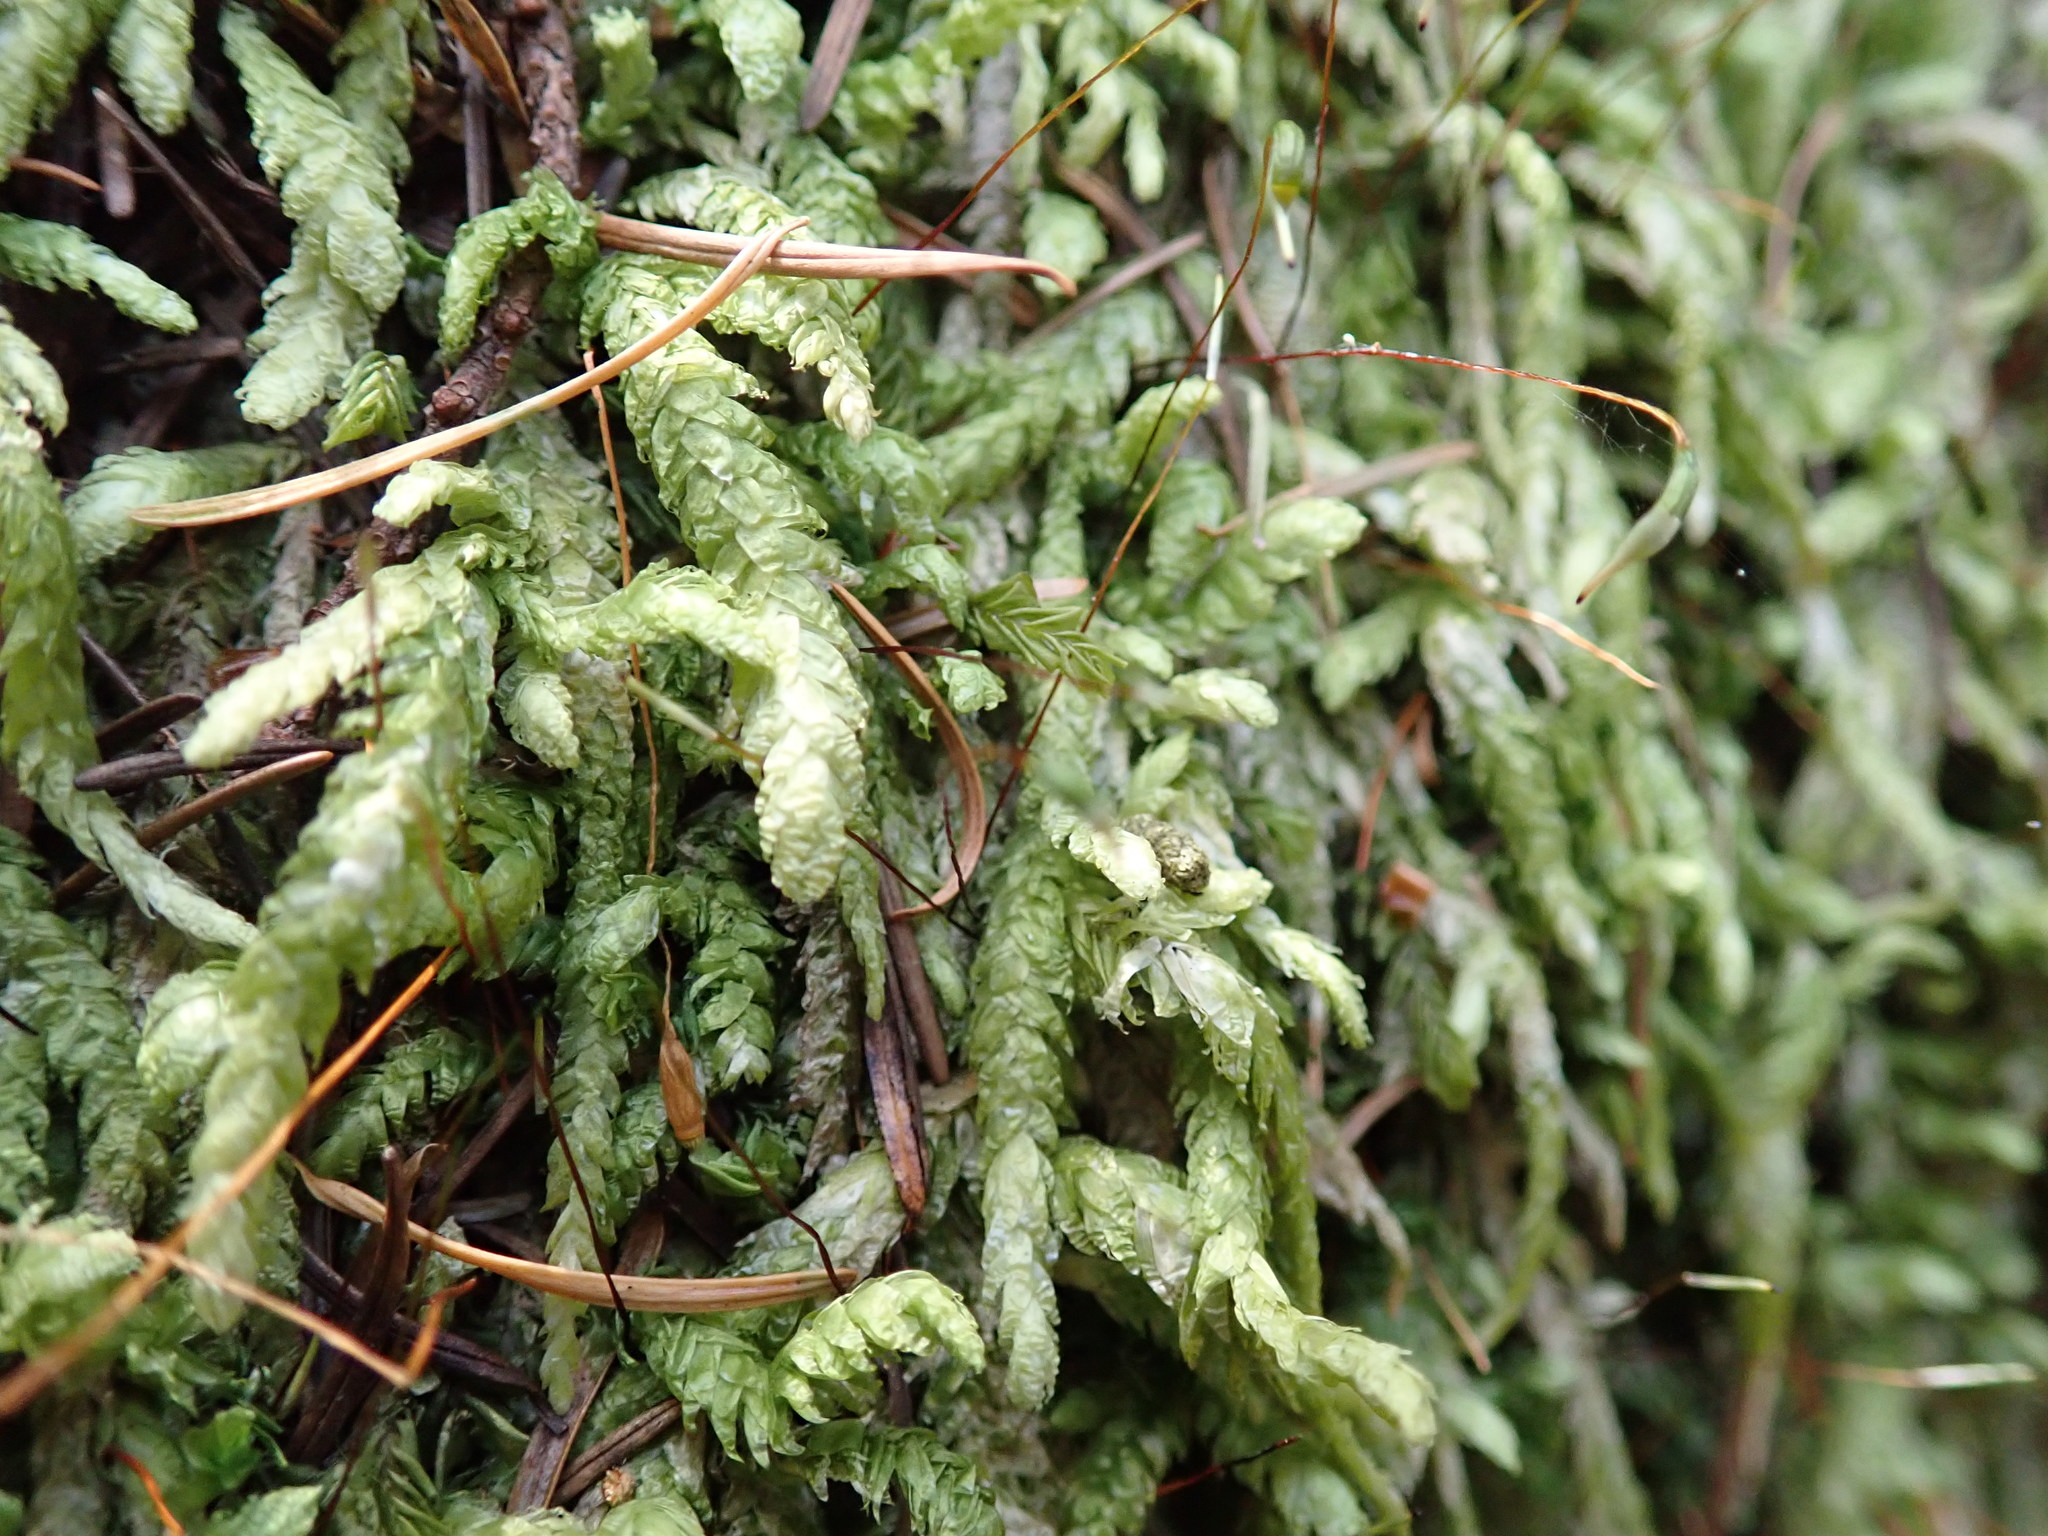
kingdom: Plantae
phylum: Bryophyta
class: Bryopsida
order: Hypnales
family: Plagiotheciaceae
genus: Plagiothecium
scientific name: Plagiothecium undulatum
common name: Waved silk-moss
